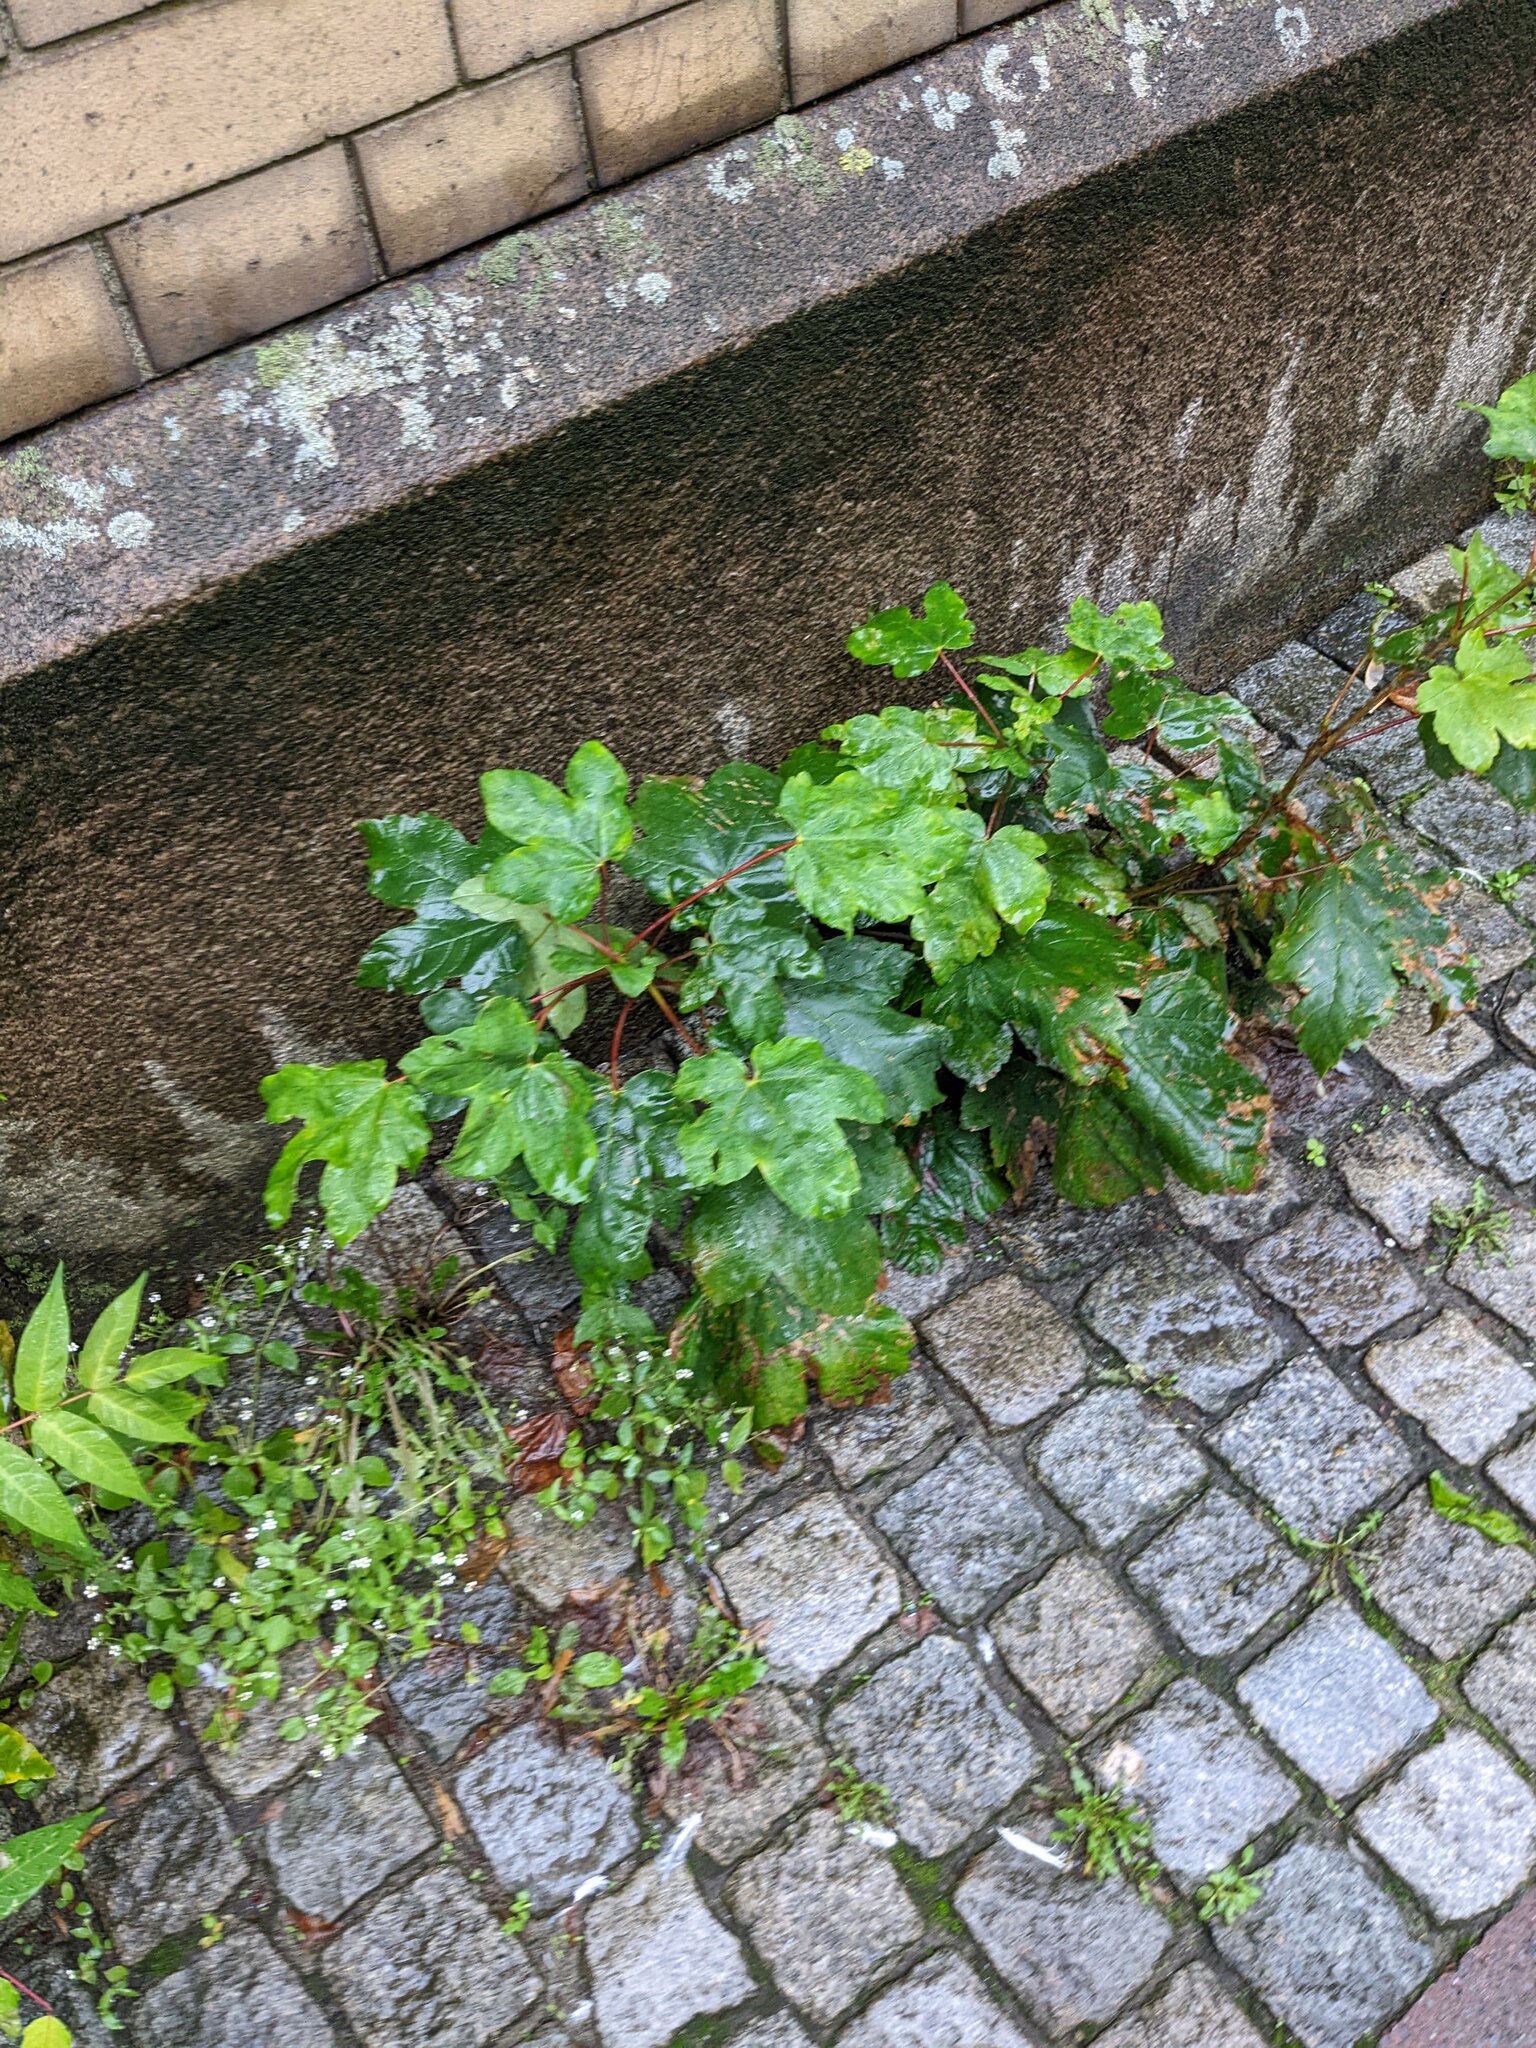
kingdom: Plantae
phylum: Tracheophyta
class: Magnoliopsida
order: Sapindales
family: Sapindaceae
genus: Acer
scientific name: Acer pseudoplatanus
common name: Sycamore
